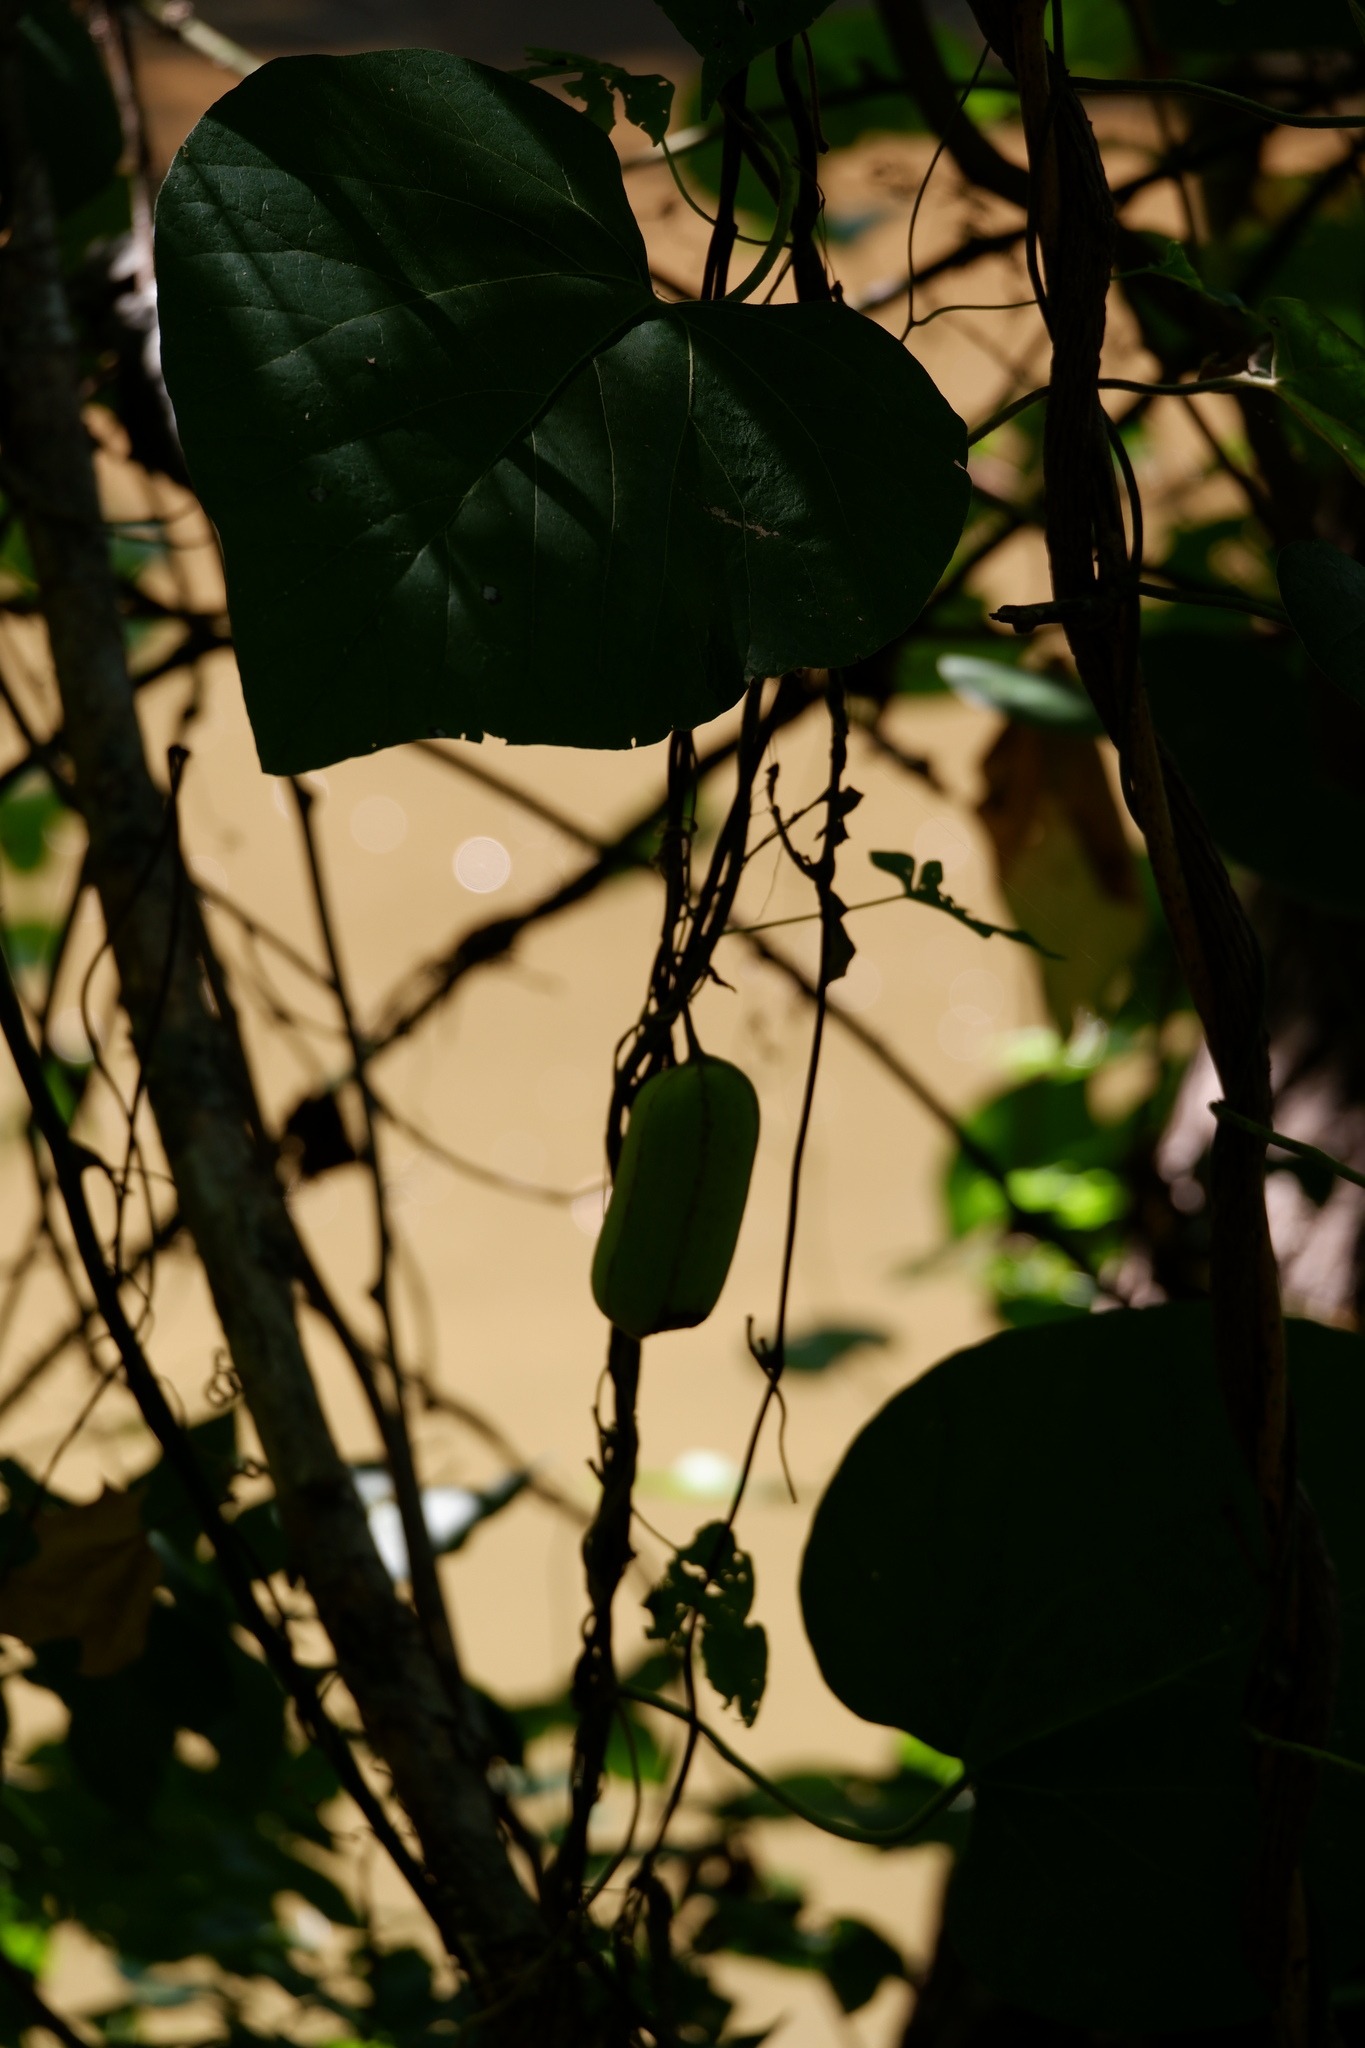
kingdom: Plantae
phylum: Tracheophyta
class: Magnoliopsida
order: Piperales
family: Aristolochiaceae
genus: Isotrema
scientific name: Isotrema tomentosum
